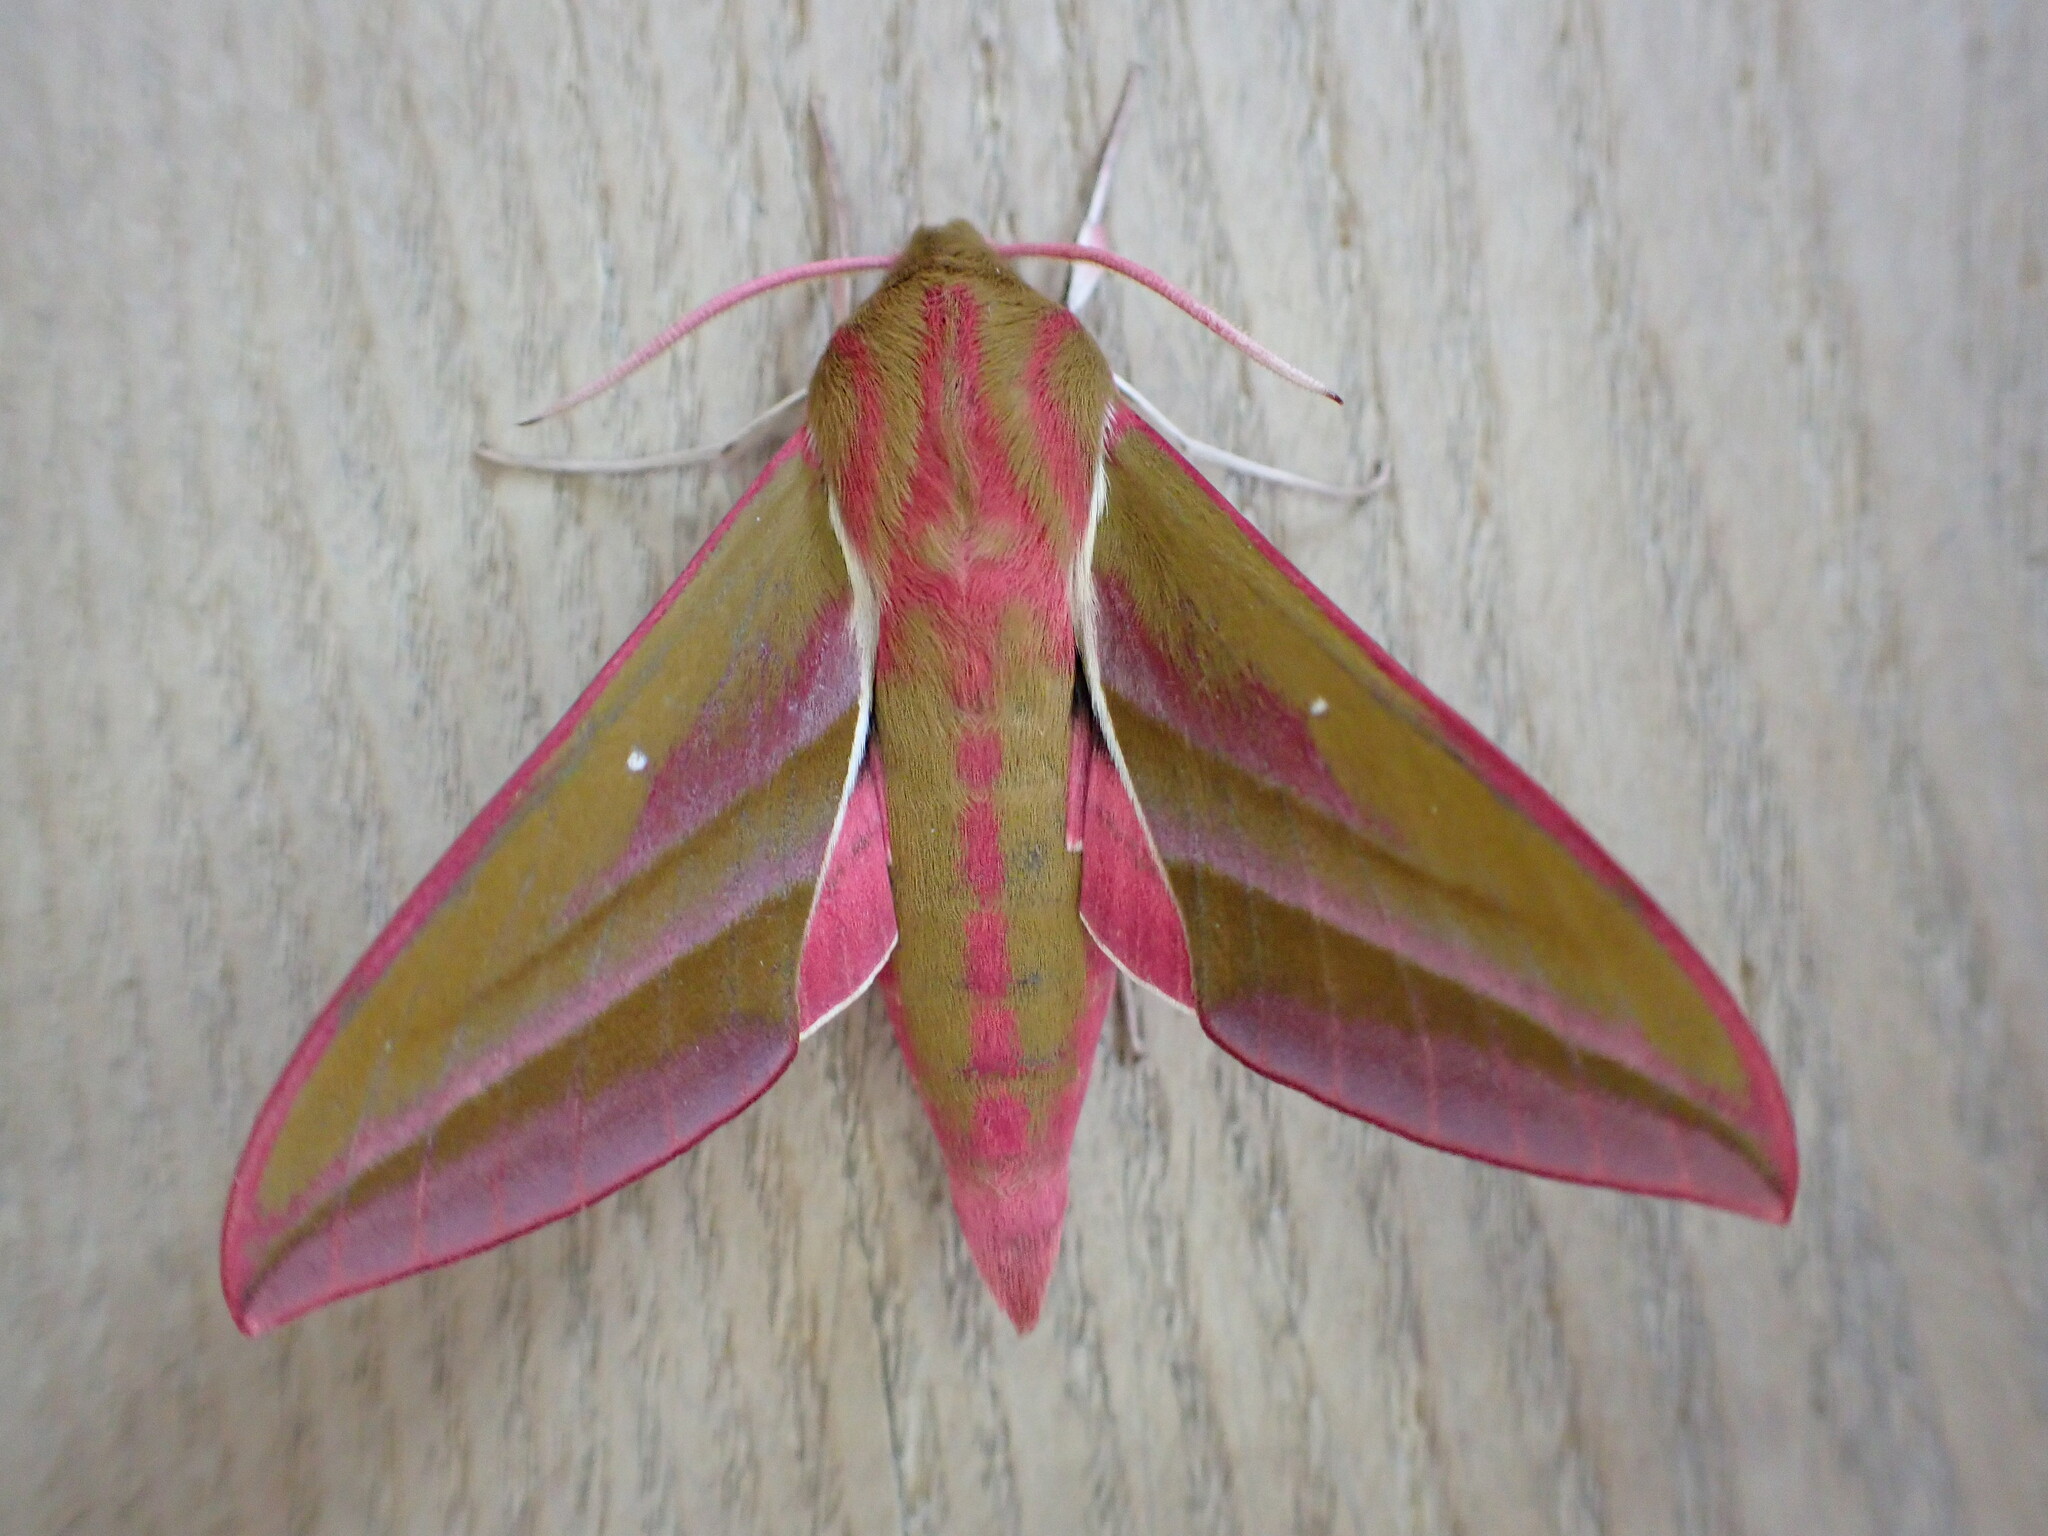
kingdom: Animalia
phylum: Arthropoda
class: Insecta
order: Lepidoptera
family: Sphingidae
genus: Deilephila
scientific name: Deilephila elpenor
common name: Elephant hawk-moth
